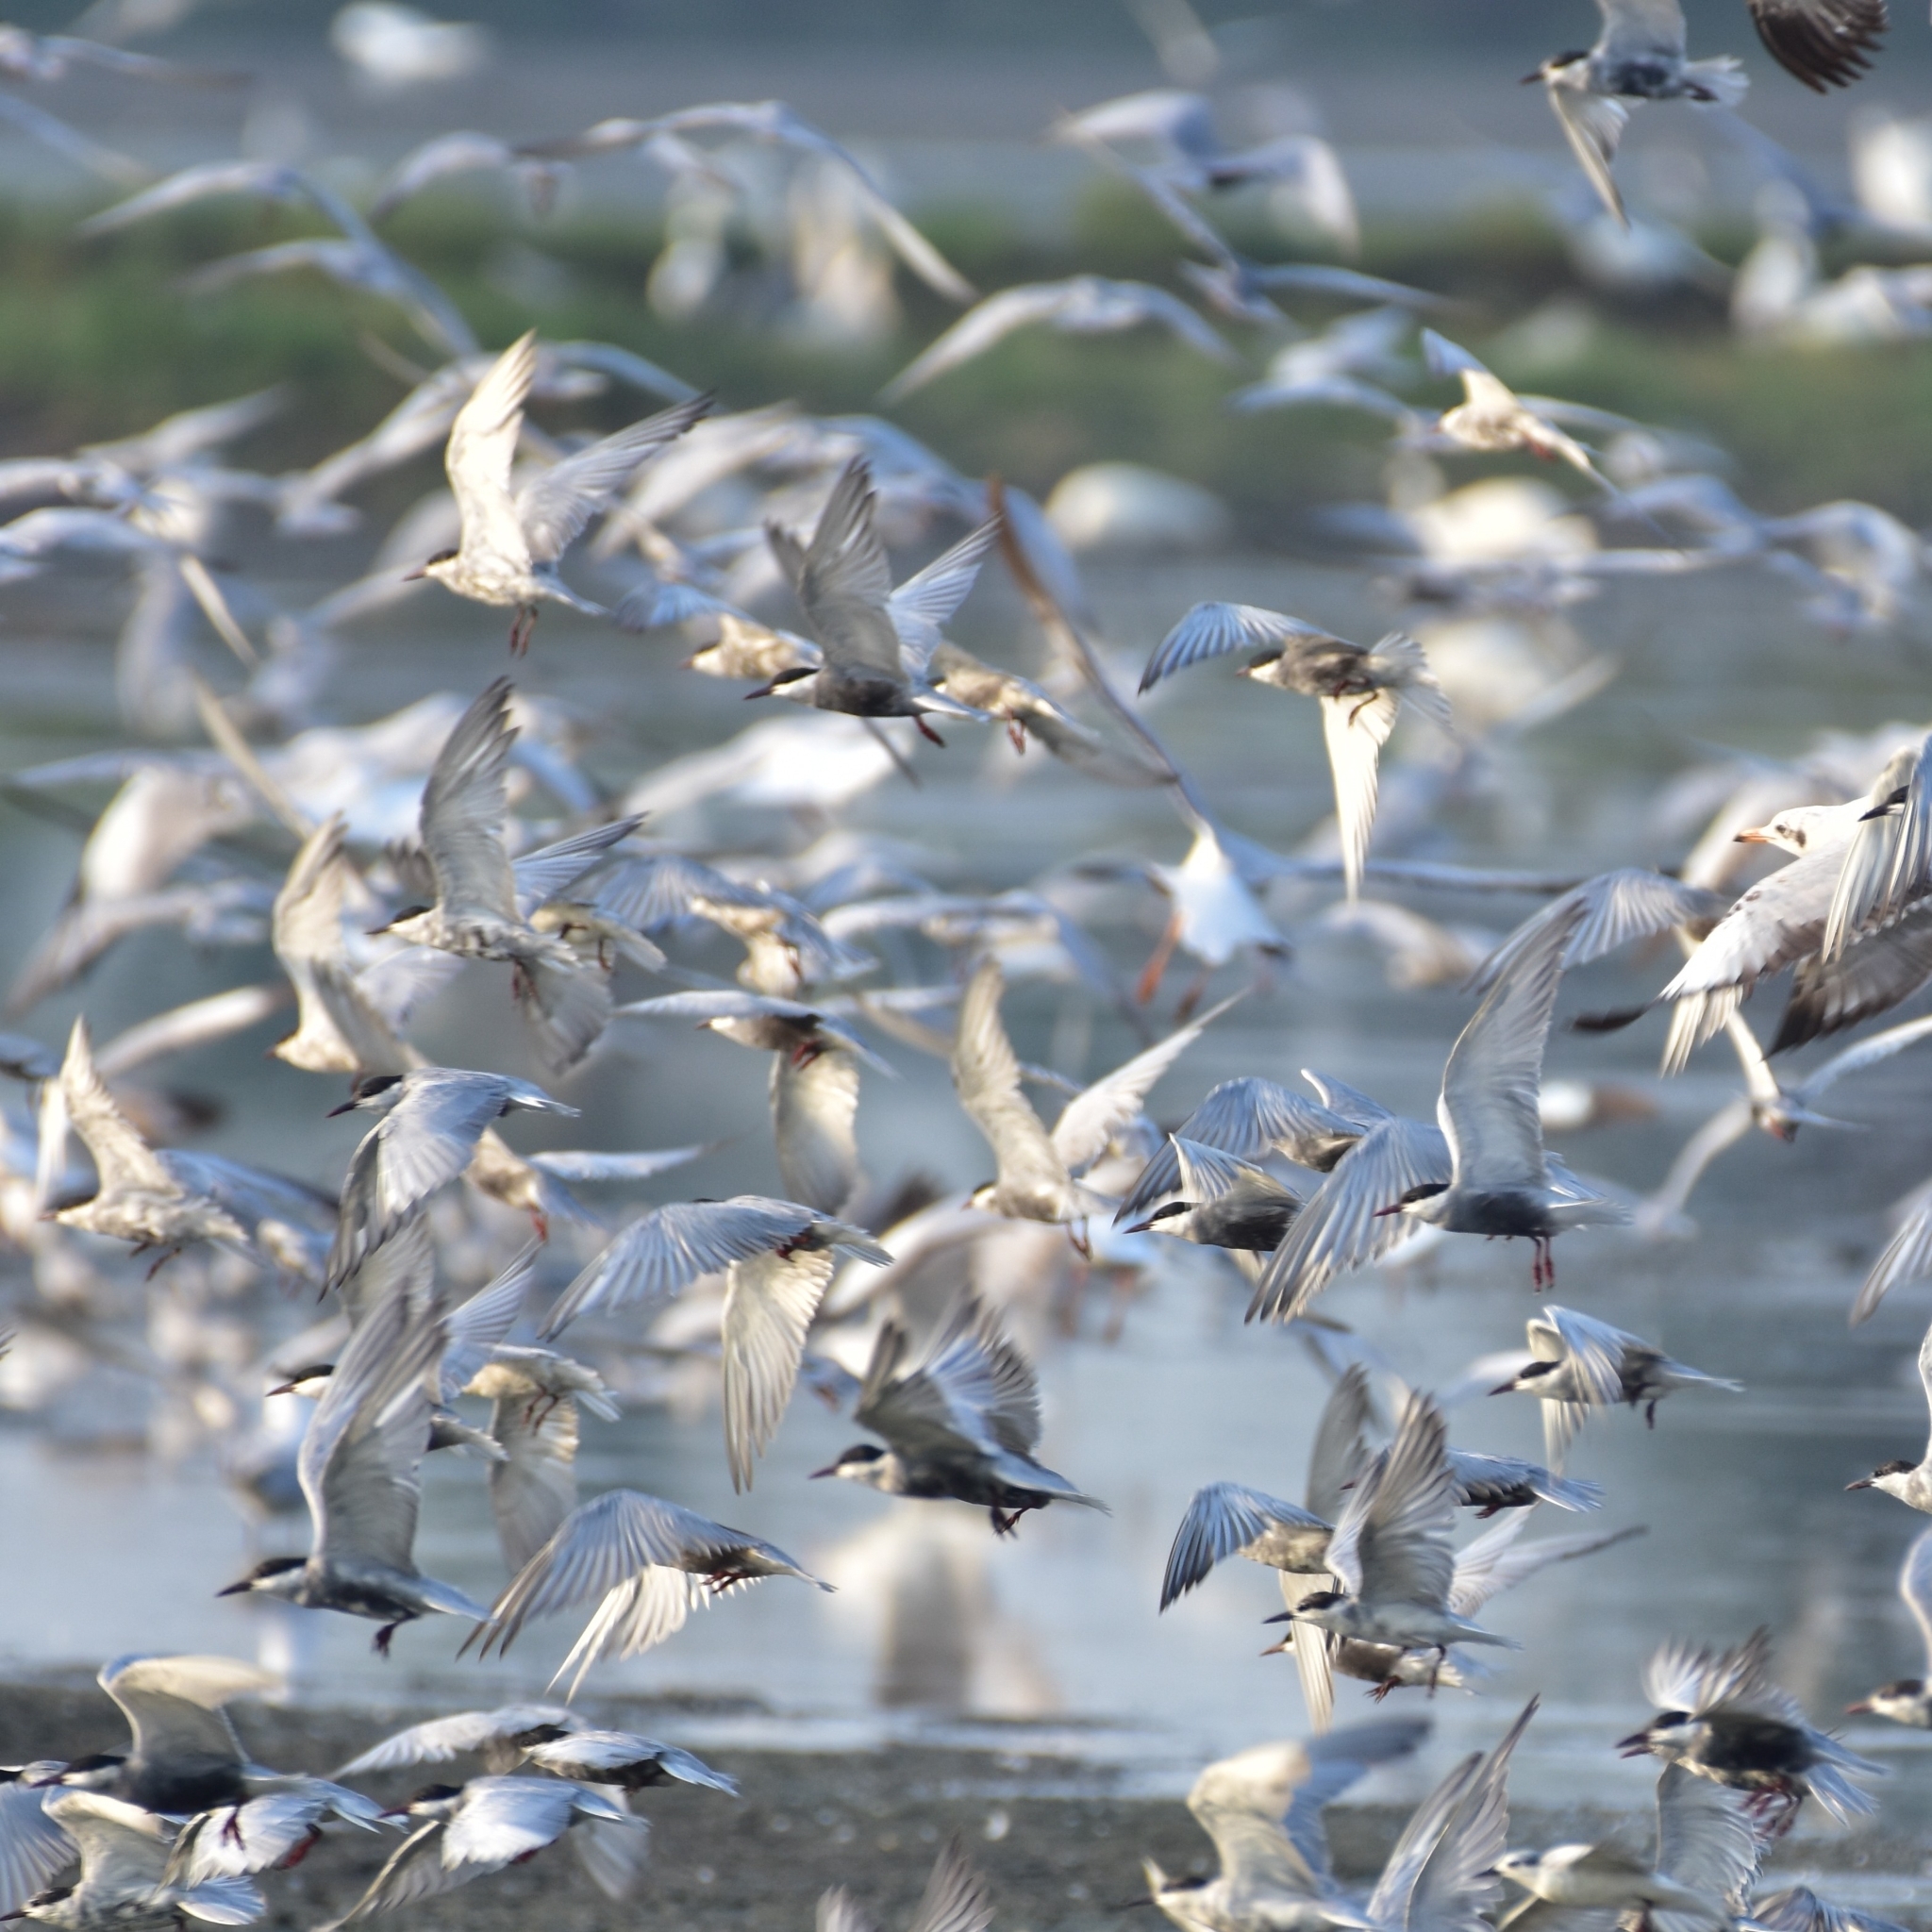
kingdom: Animalia
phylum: Chordata
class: Aves
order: Charadriiformes
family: Laridae
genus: Chlidonias
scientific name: Chlidonias hybrida
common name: Whiskered tern
